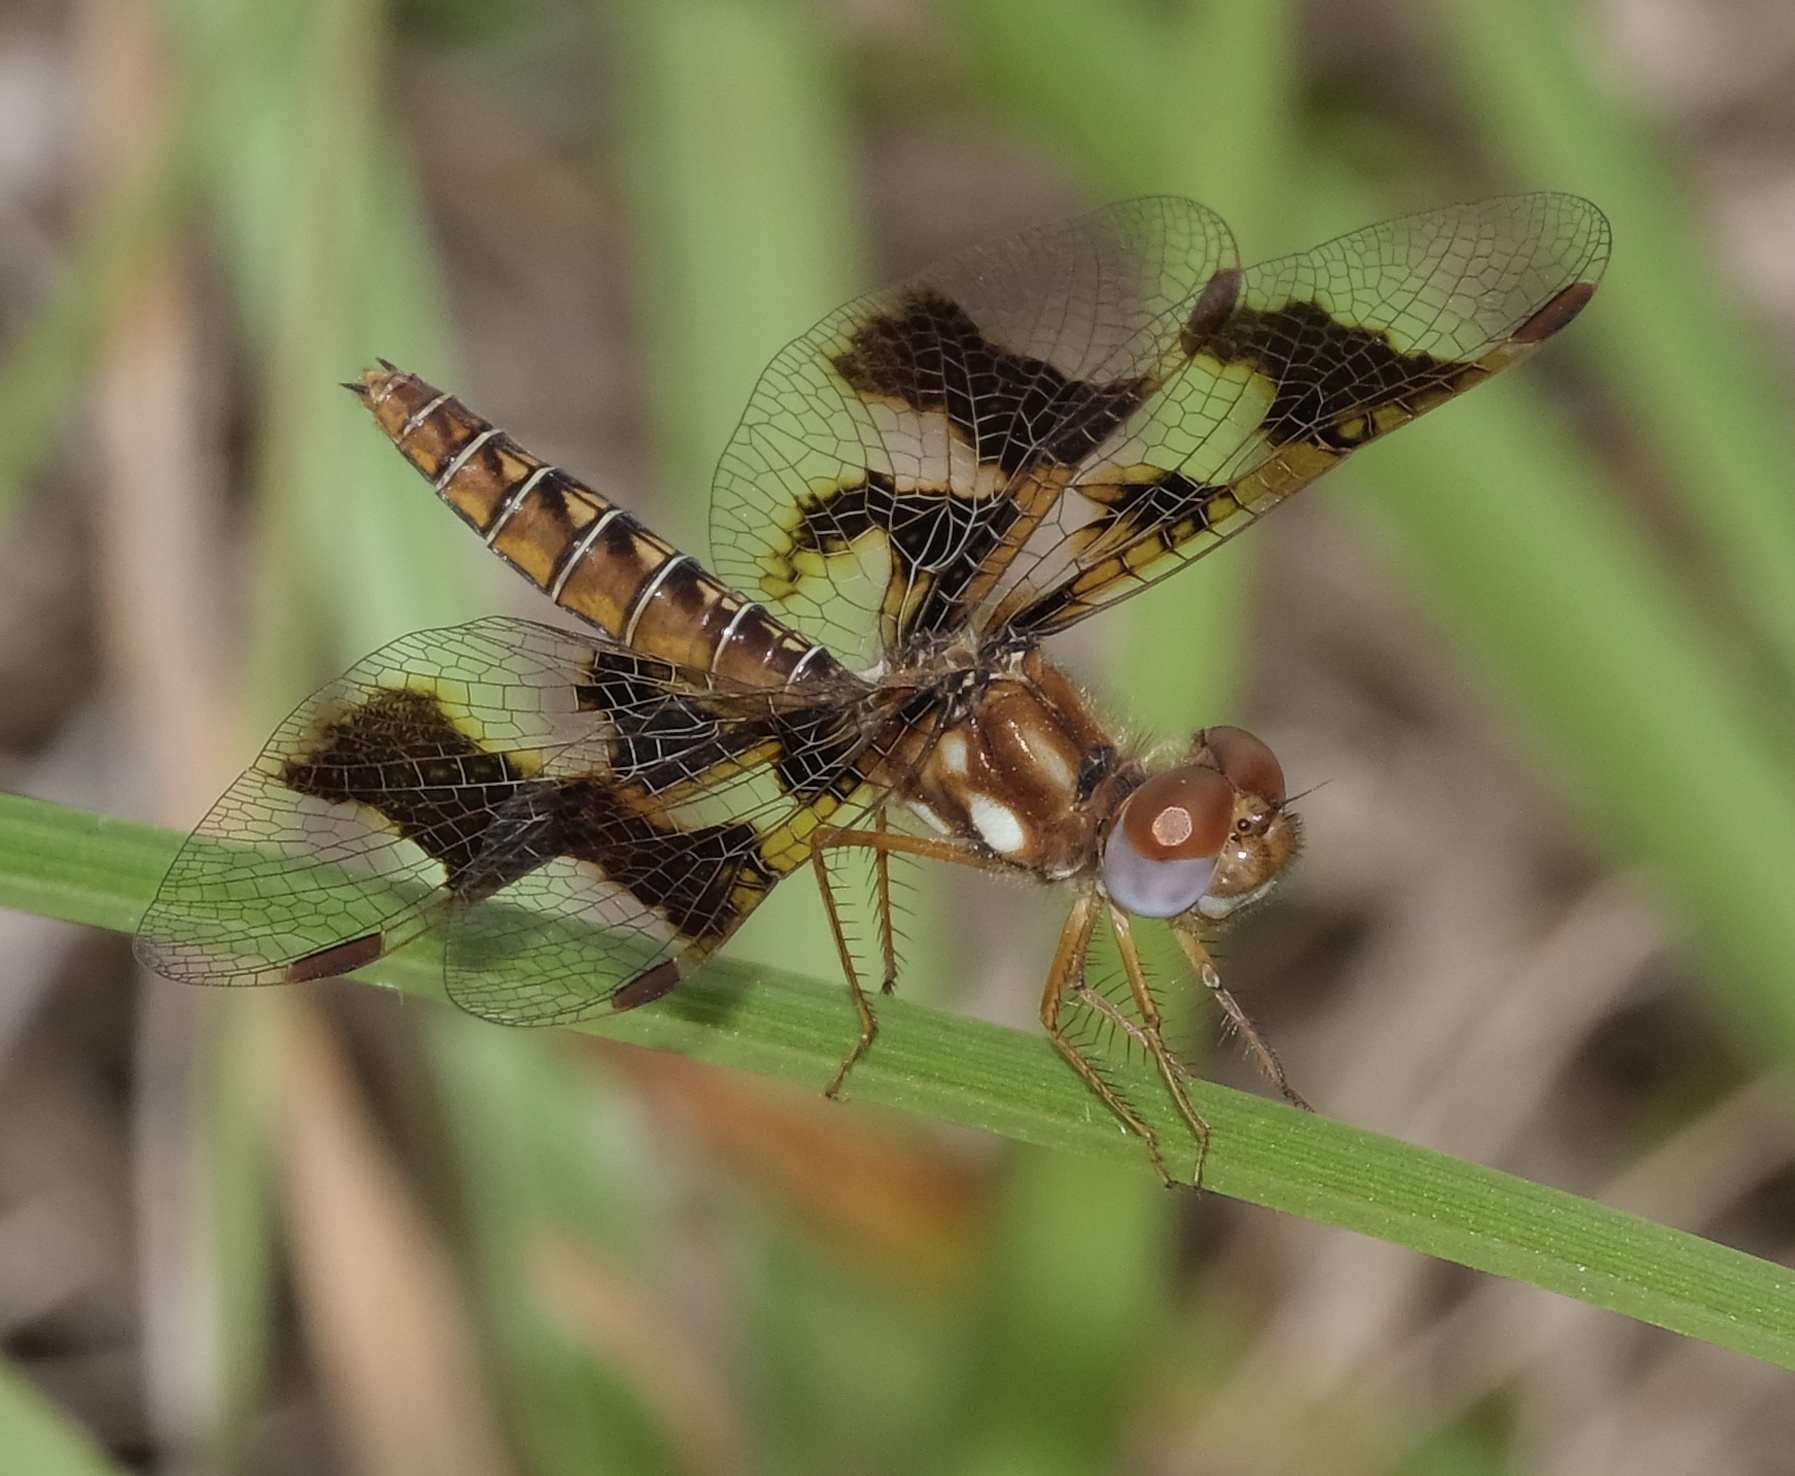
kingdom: Animalia
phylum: Arthropoda
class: Insecta
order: Odonata
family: Libellulidae
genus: Perithemis
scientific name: Perithemis tenera
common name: Eastern amberwing
